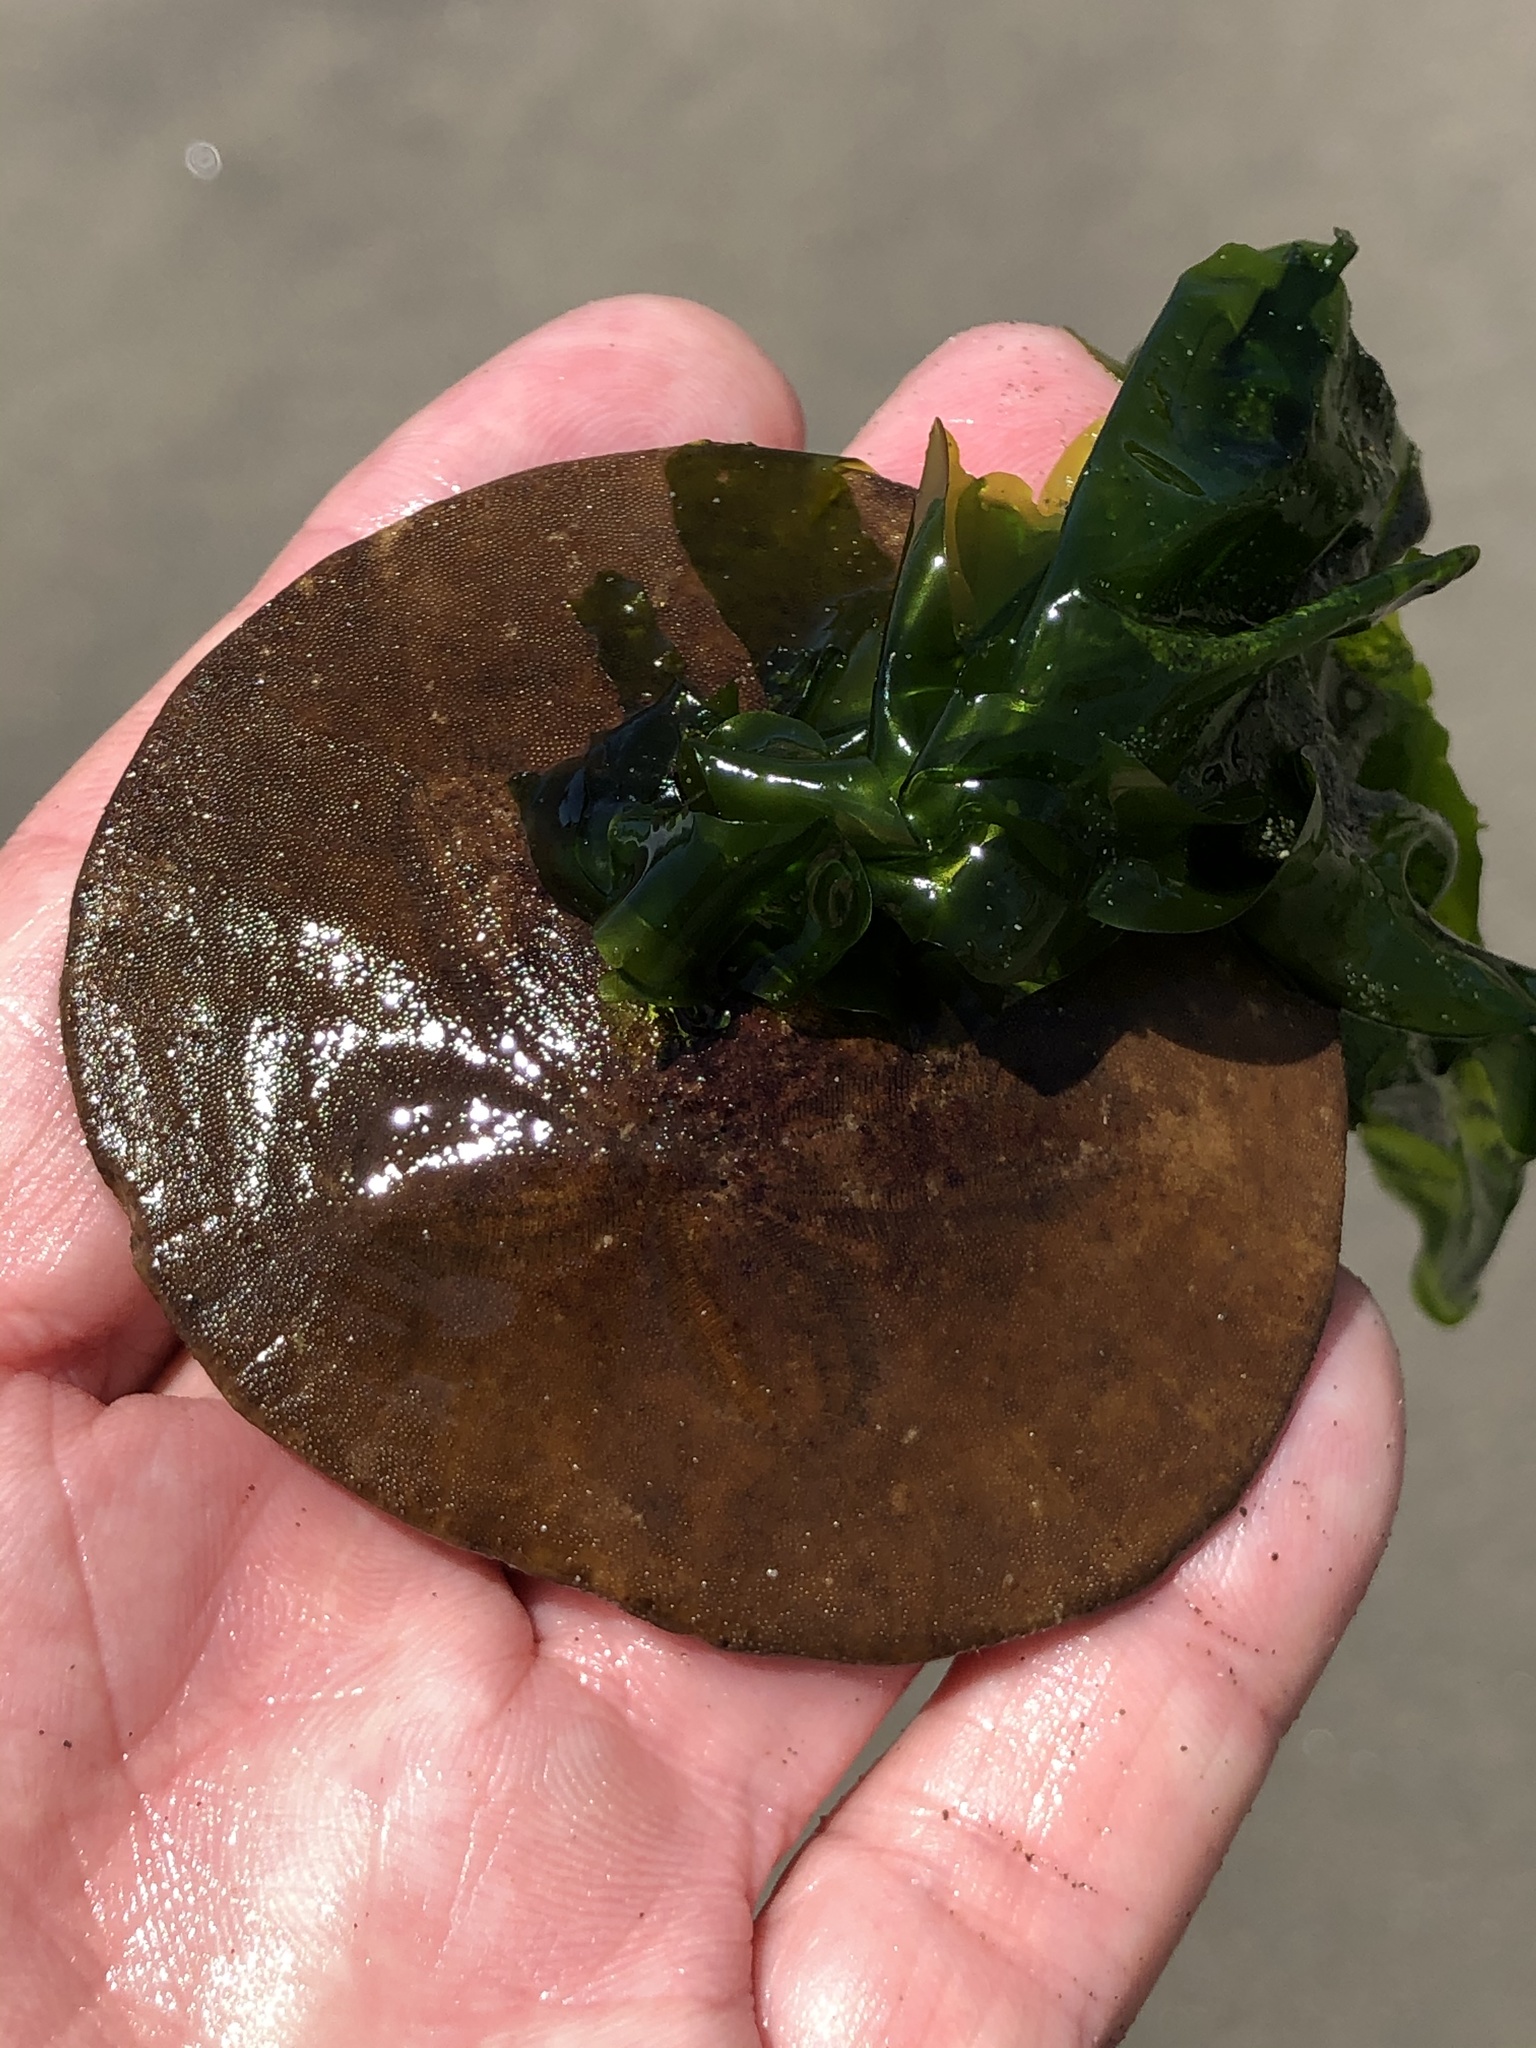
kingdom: Animalia
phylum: Echinodermata
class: Echinoidea
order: Echinolampadacea
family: Dendrasteridae
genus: Dendraster
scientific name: Dendraster excentricus
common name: Eccentric sand dollar sea urchin
